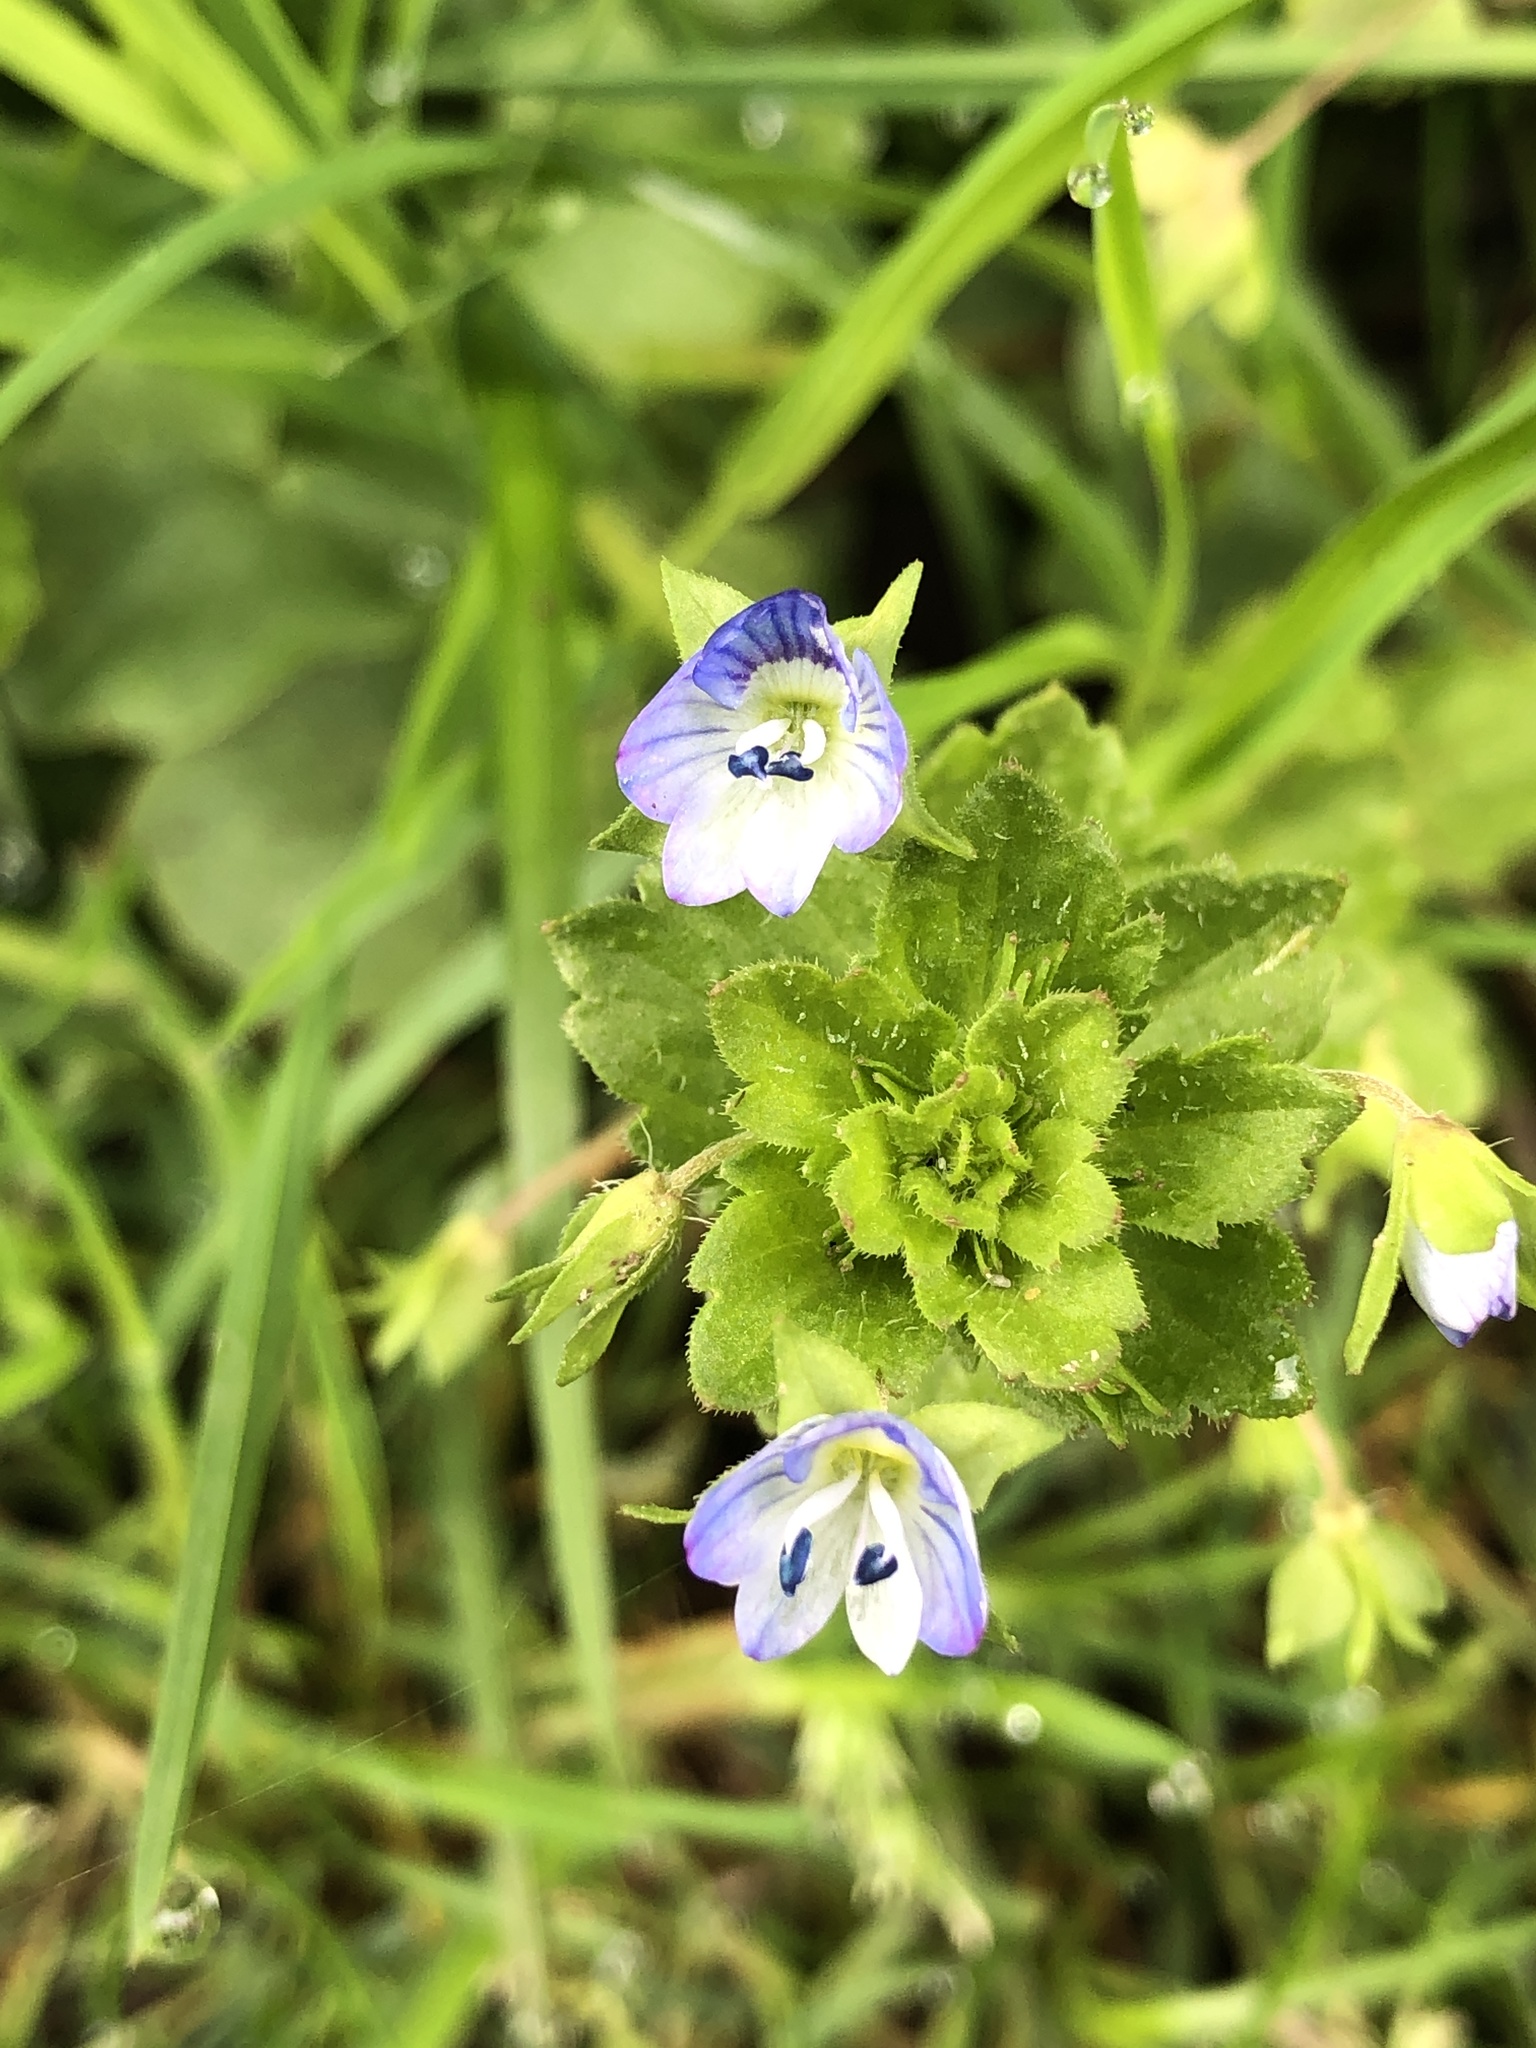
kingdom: Plantae
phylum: Tracheophyta
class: Magnoliopsida
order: Lamiales
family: Plantaginaceae
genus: Veronica
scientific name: Veronica persica
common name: Common field-speedwell
